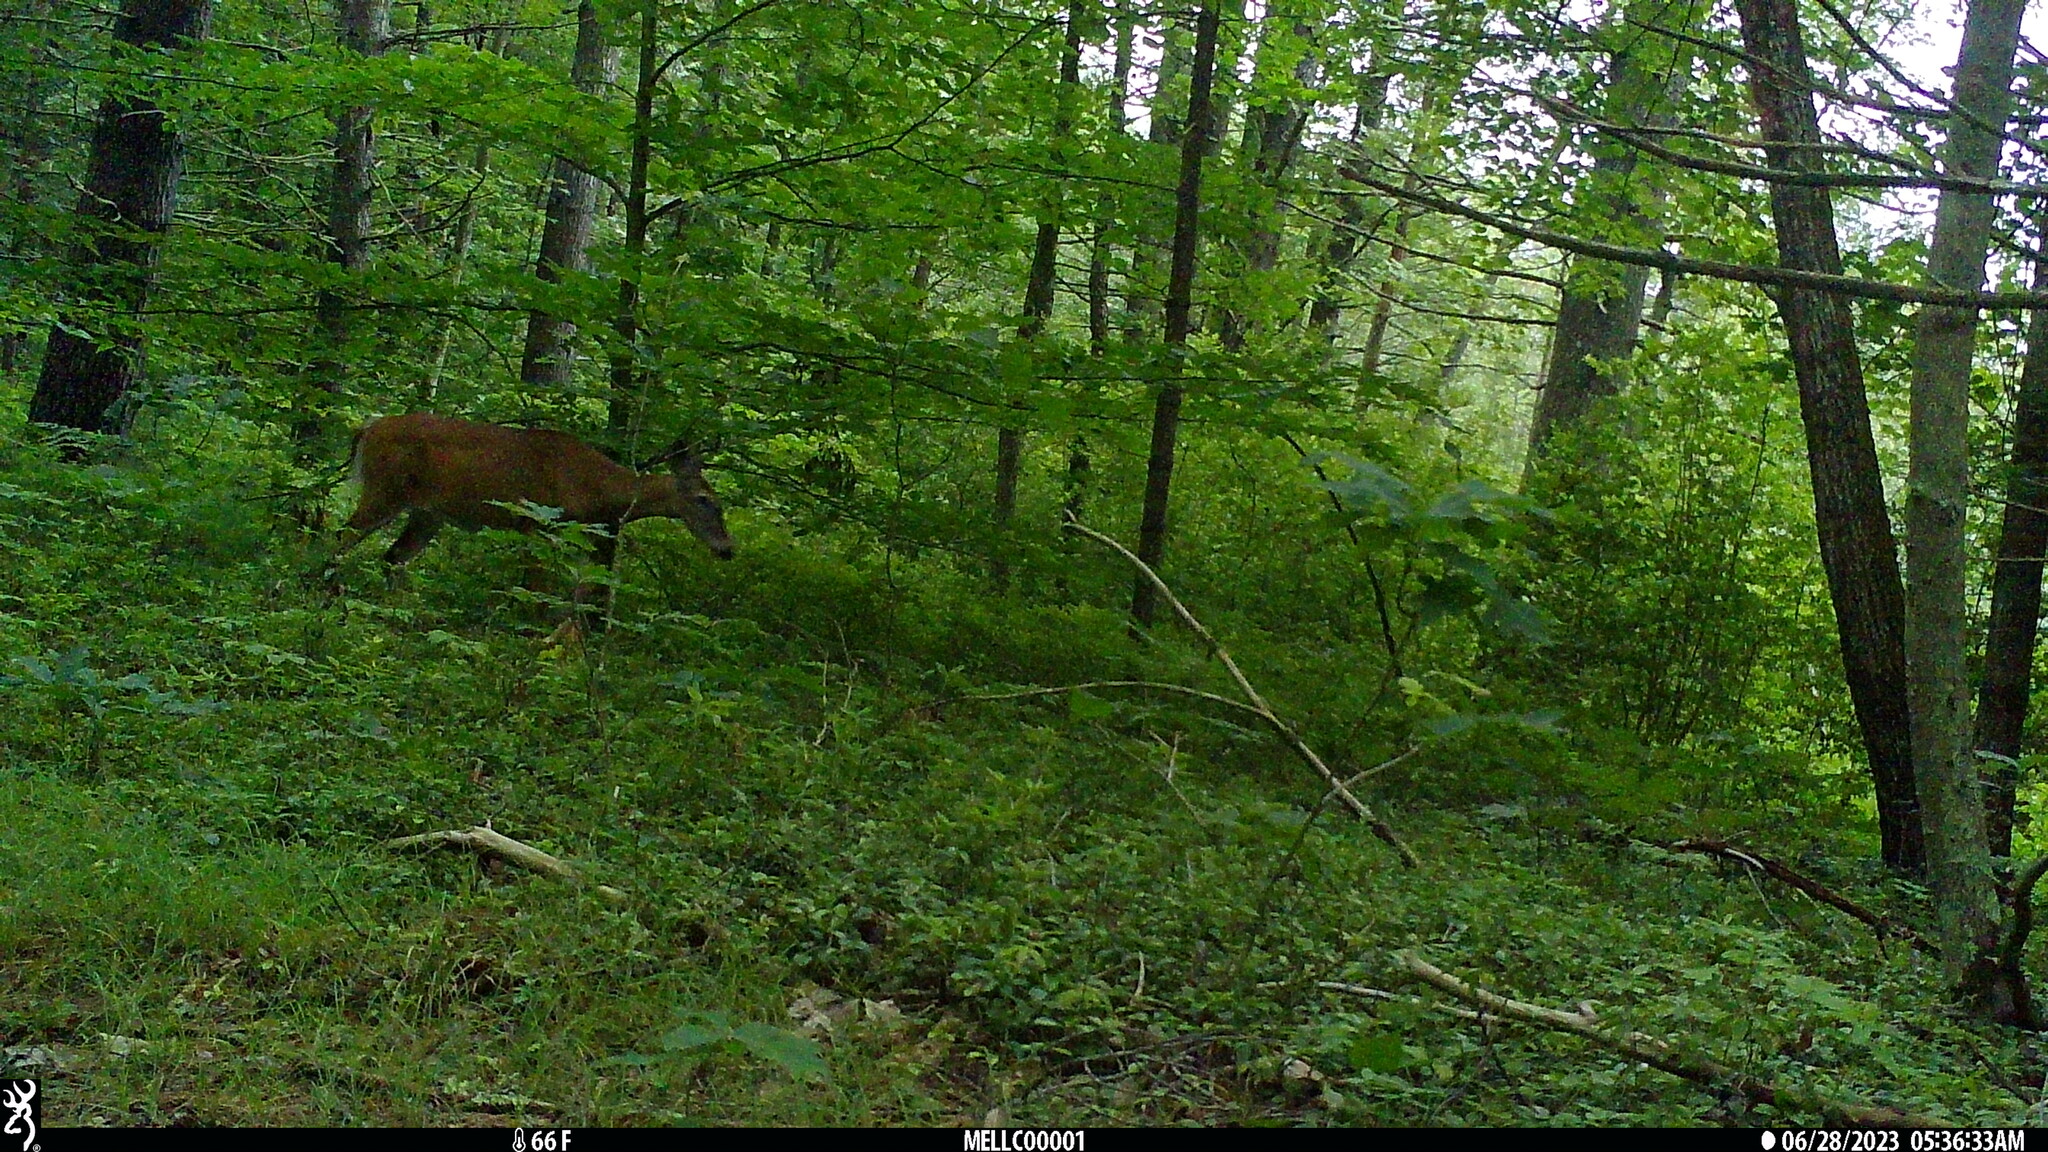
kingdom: Animalia
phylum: Chordata
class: Mammalia
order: Artiodactyla
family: Cervidae
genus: Odocoileus
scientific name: Odocoileus virginianus
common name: White-tailed deer
